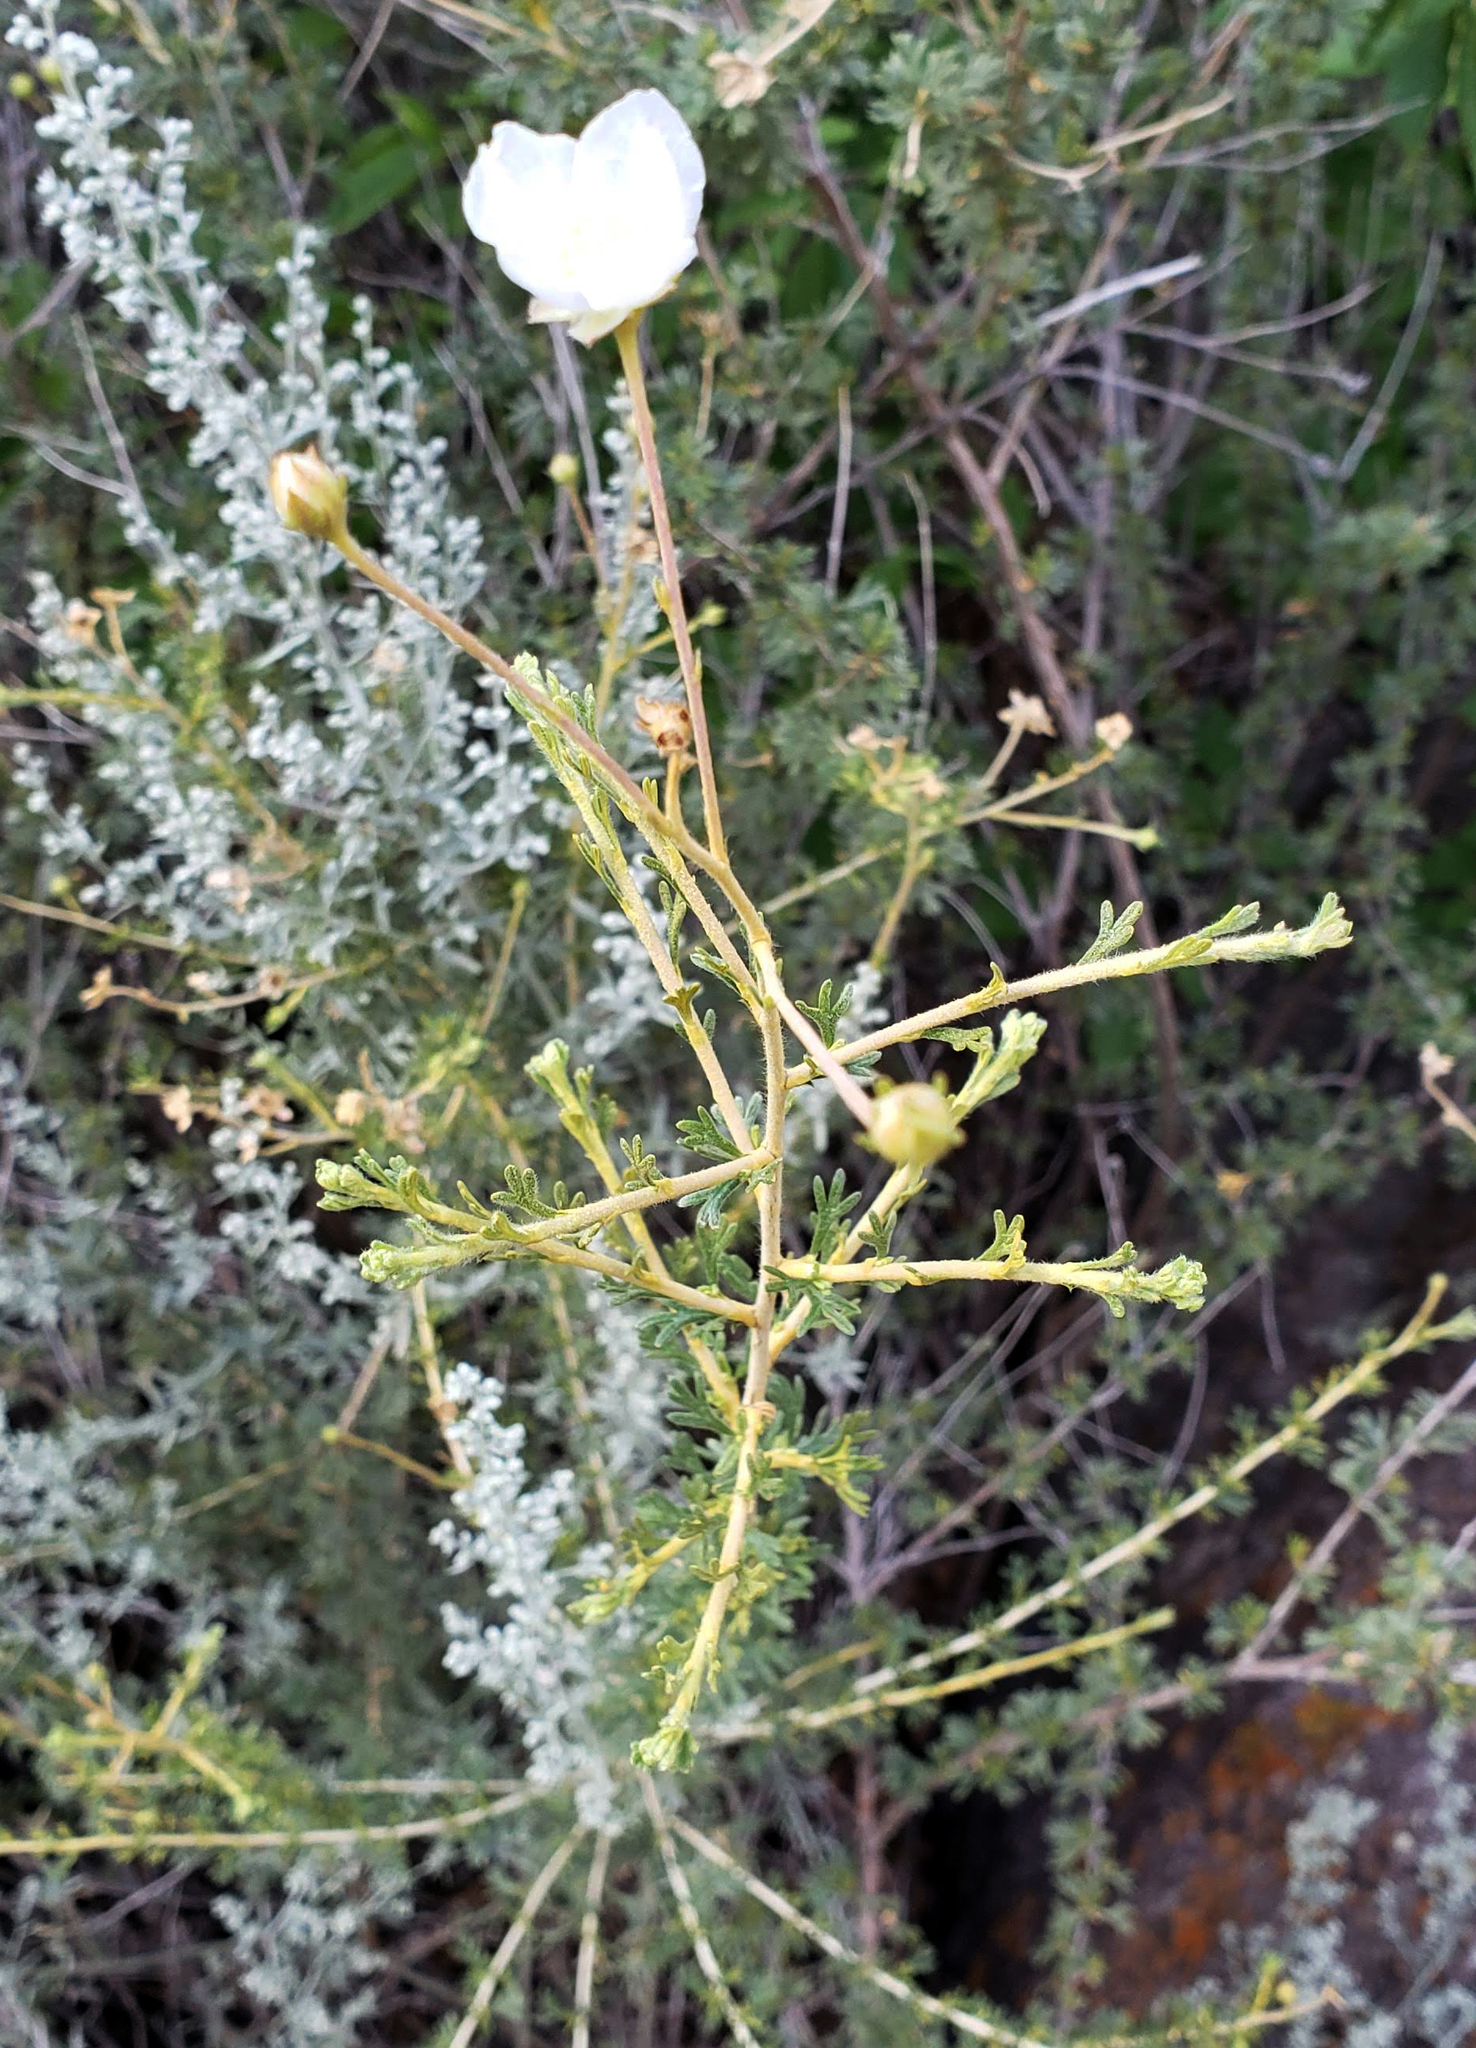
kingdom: Plantae
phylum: Tracheophyta
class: Magnoliopsida
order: Rosales
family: Rosaceae
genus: Fallugia
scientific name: Fallugia paradoxa
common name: Apache-plume
